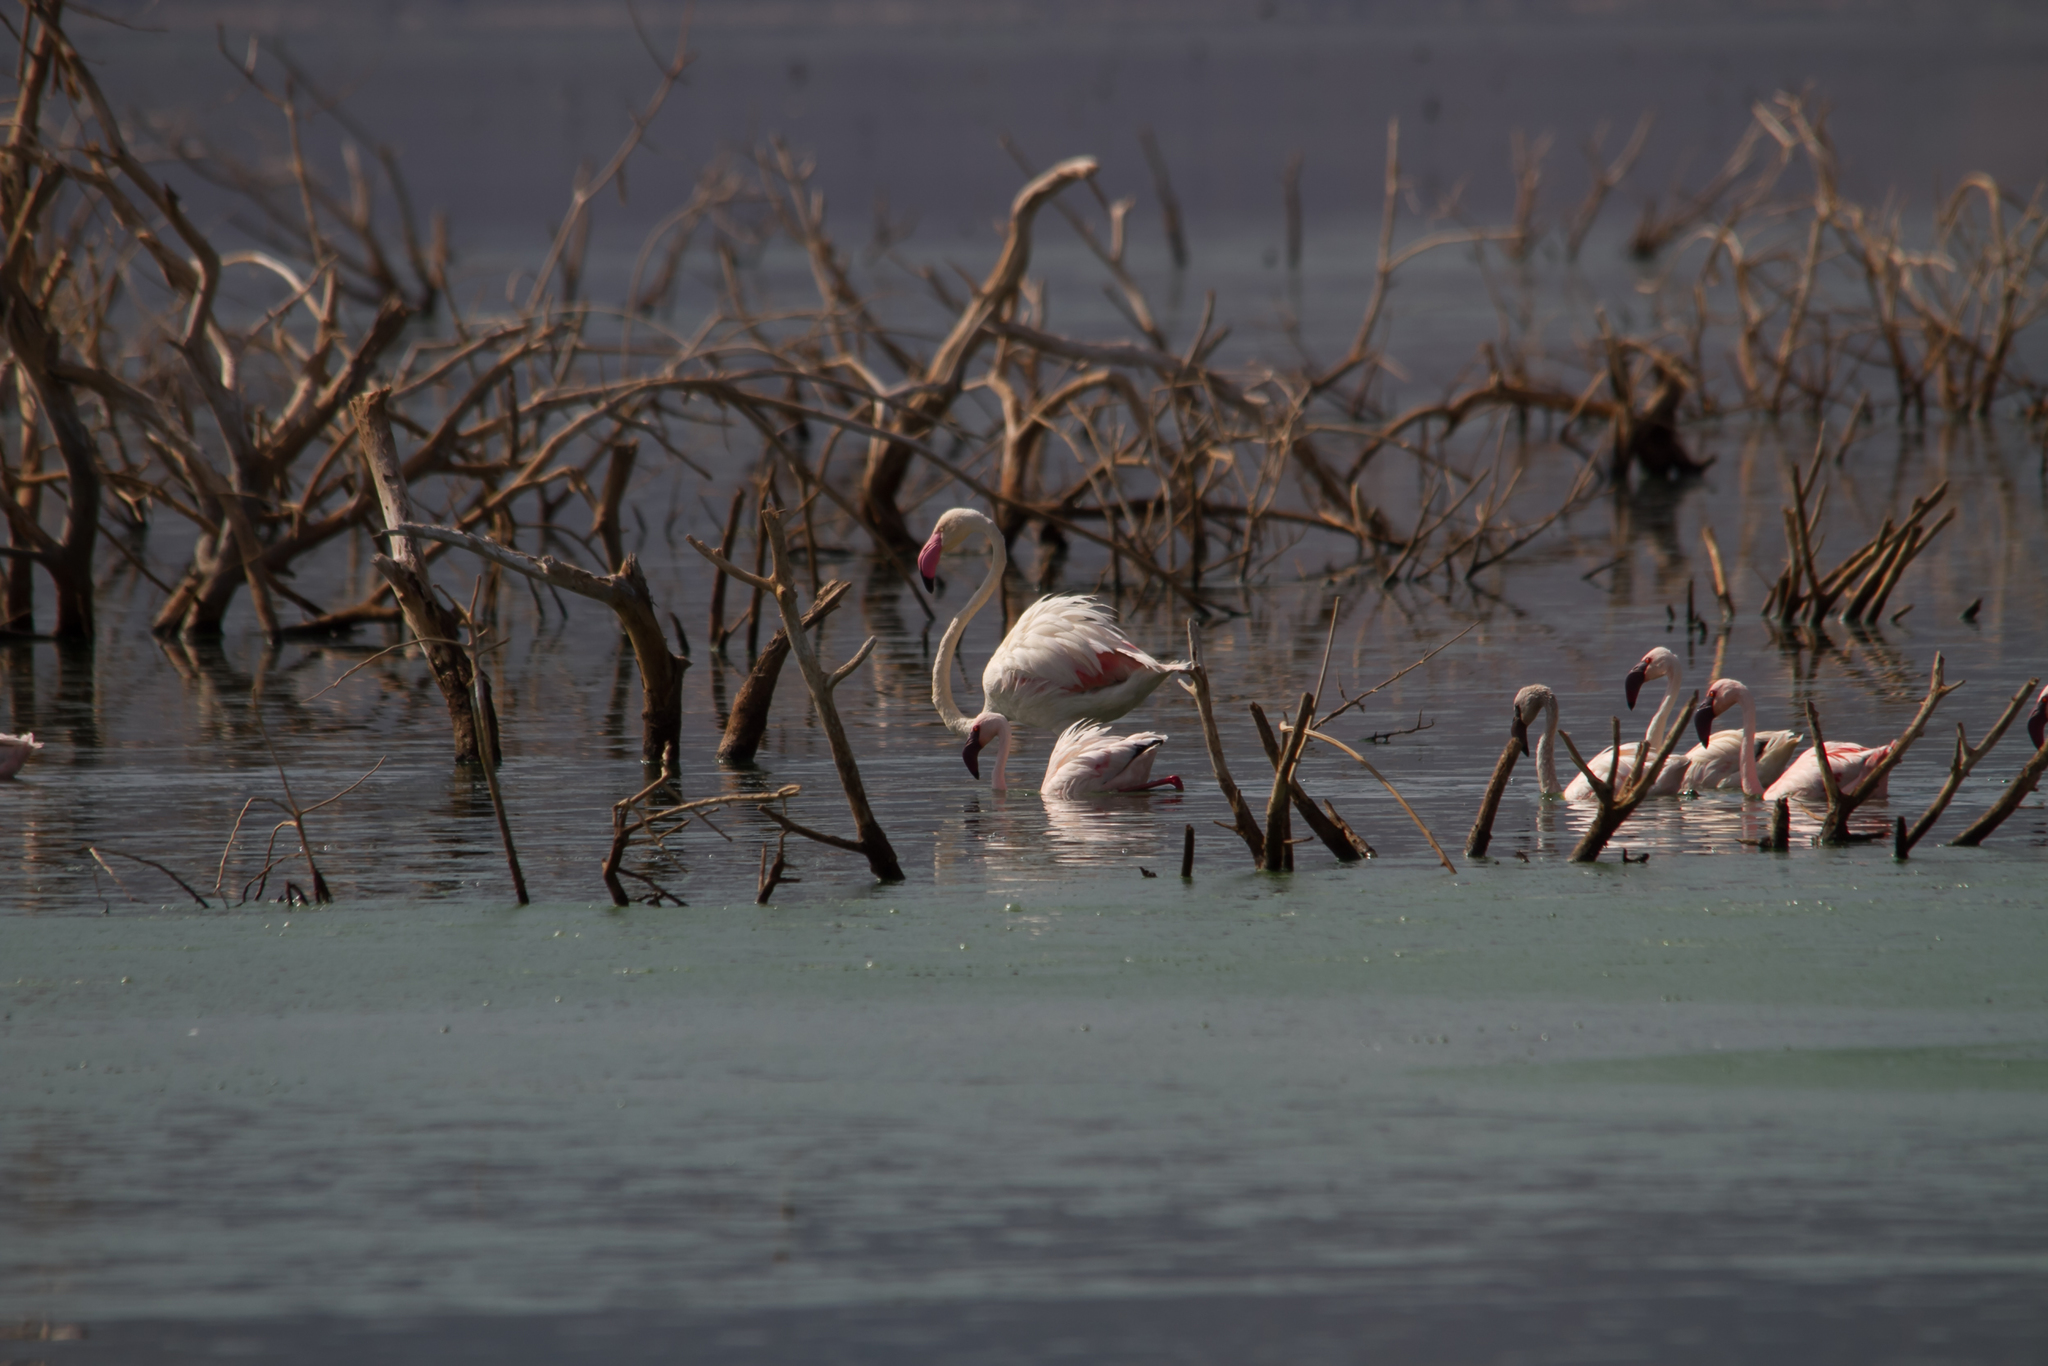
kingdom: Animalia
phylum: Chordata
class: Aves
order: Phoenicopteriformes
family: Phoenicopteridae
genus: Phoenicopterus
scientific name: Phoenicopterus roseus
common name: Greater flamingo
